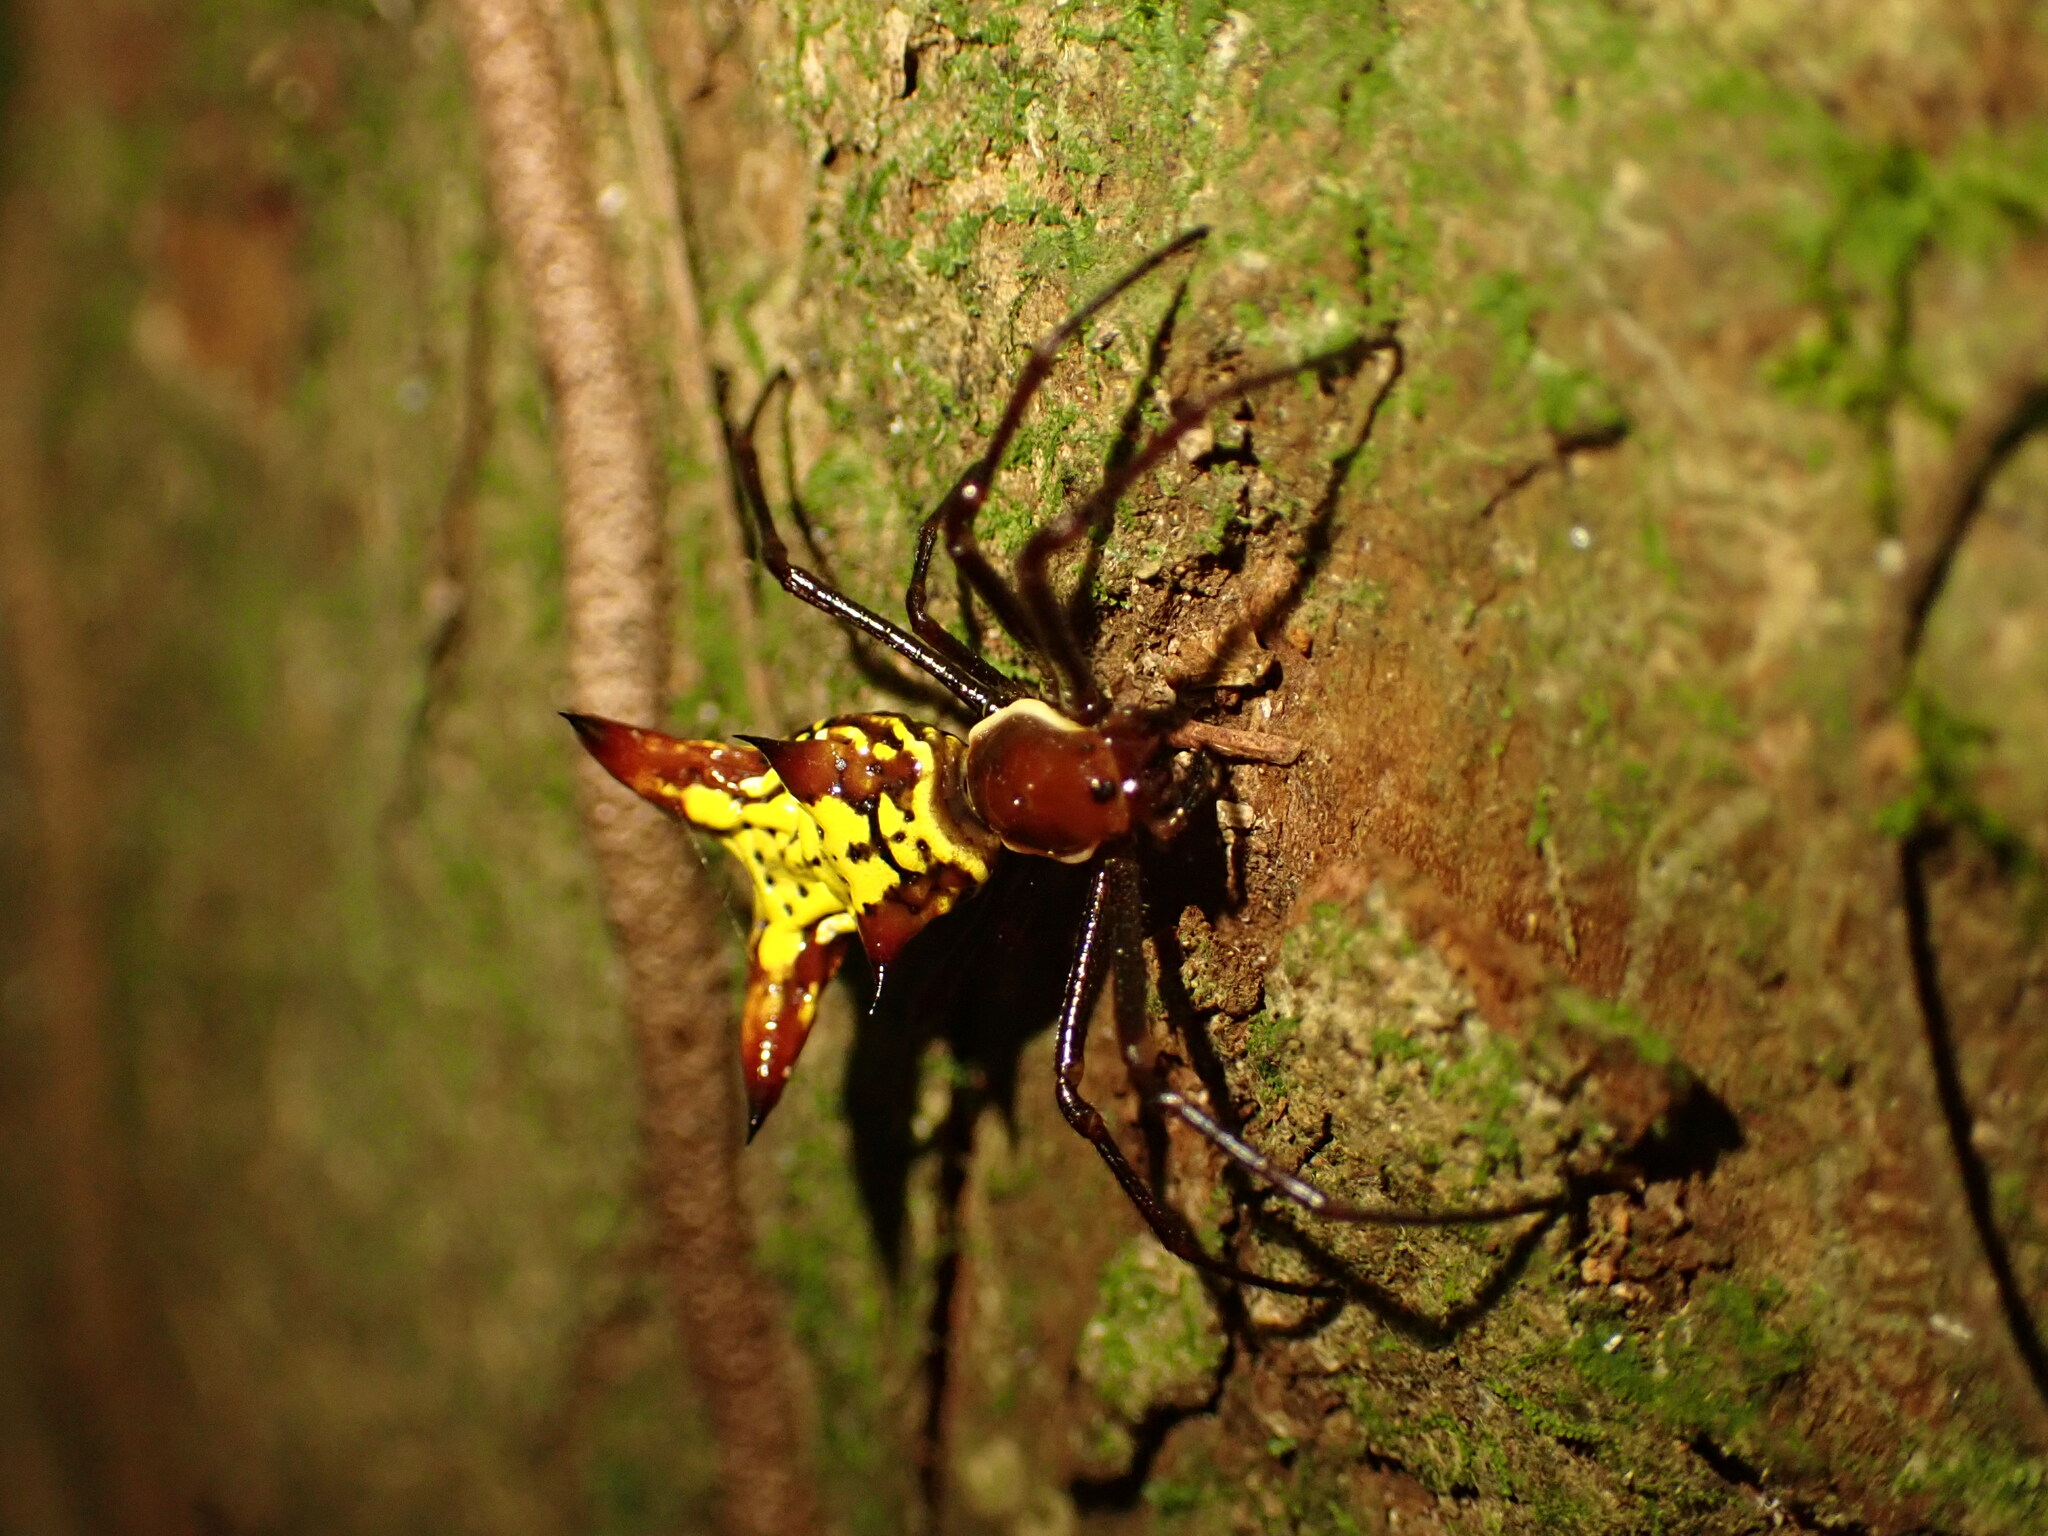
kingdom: Animalia
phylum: Arthropoda
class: Arachnida
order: Araneae
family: Araneidae
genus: Micrathena
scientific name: Micrathena fissispina
